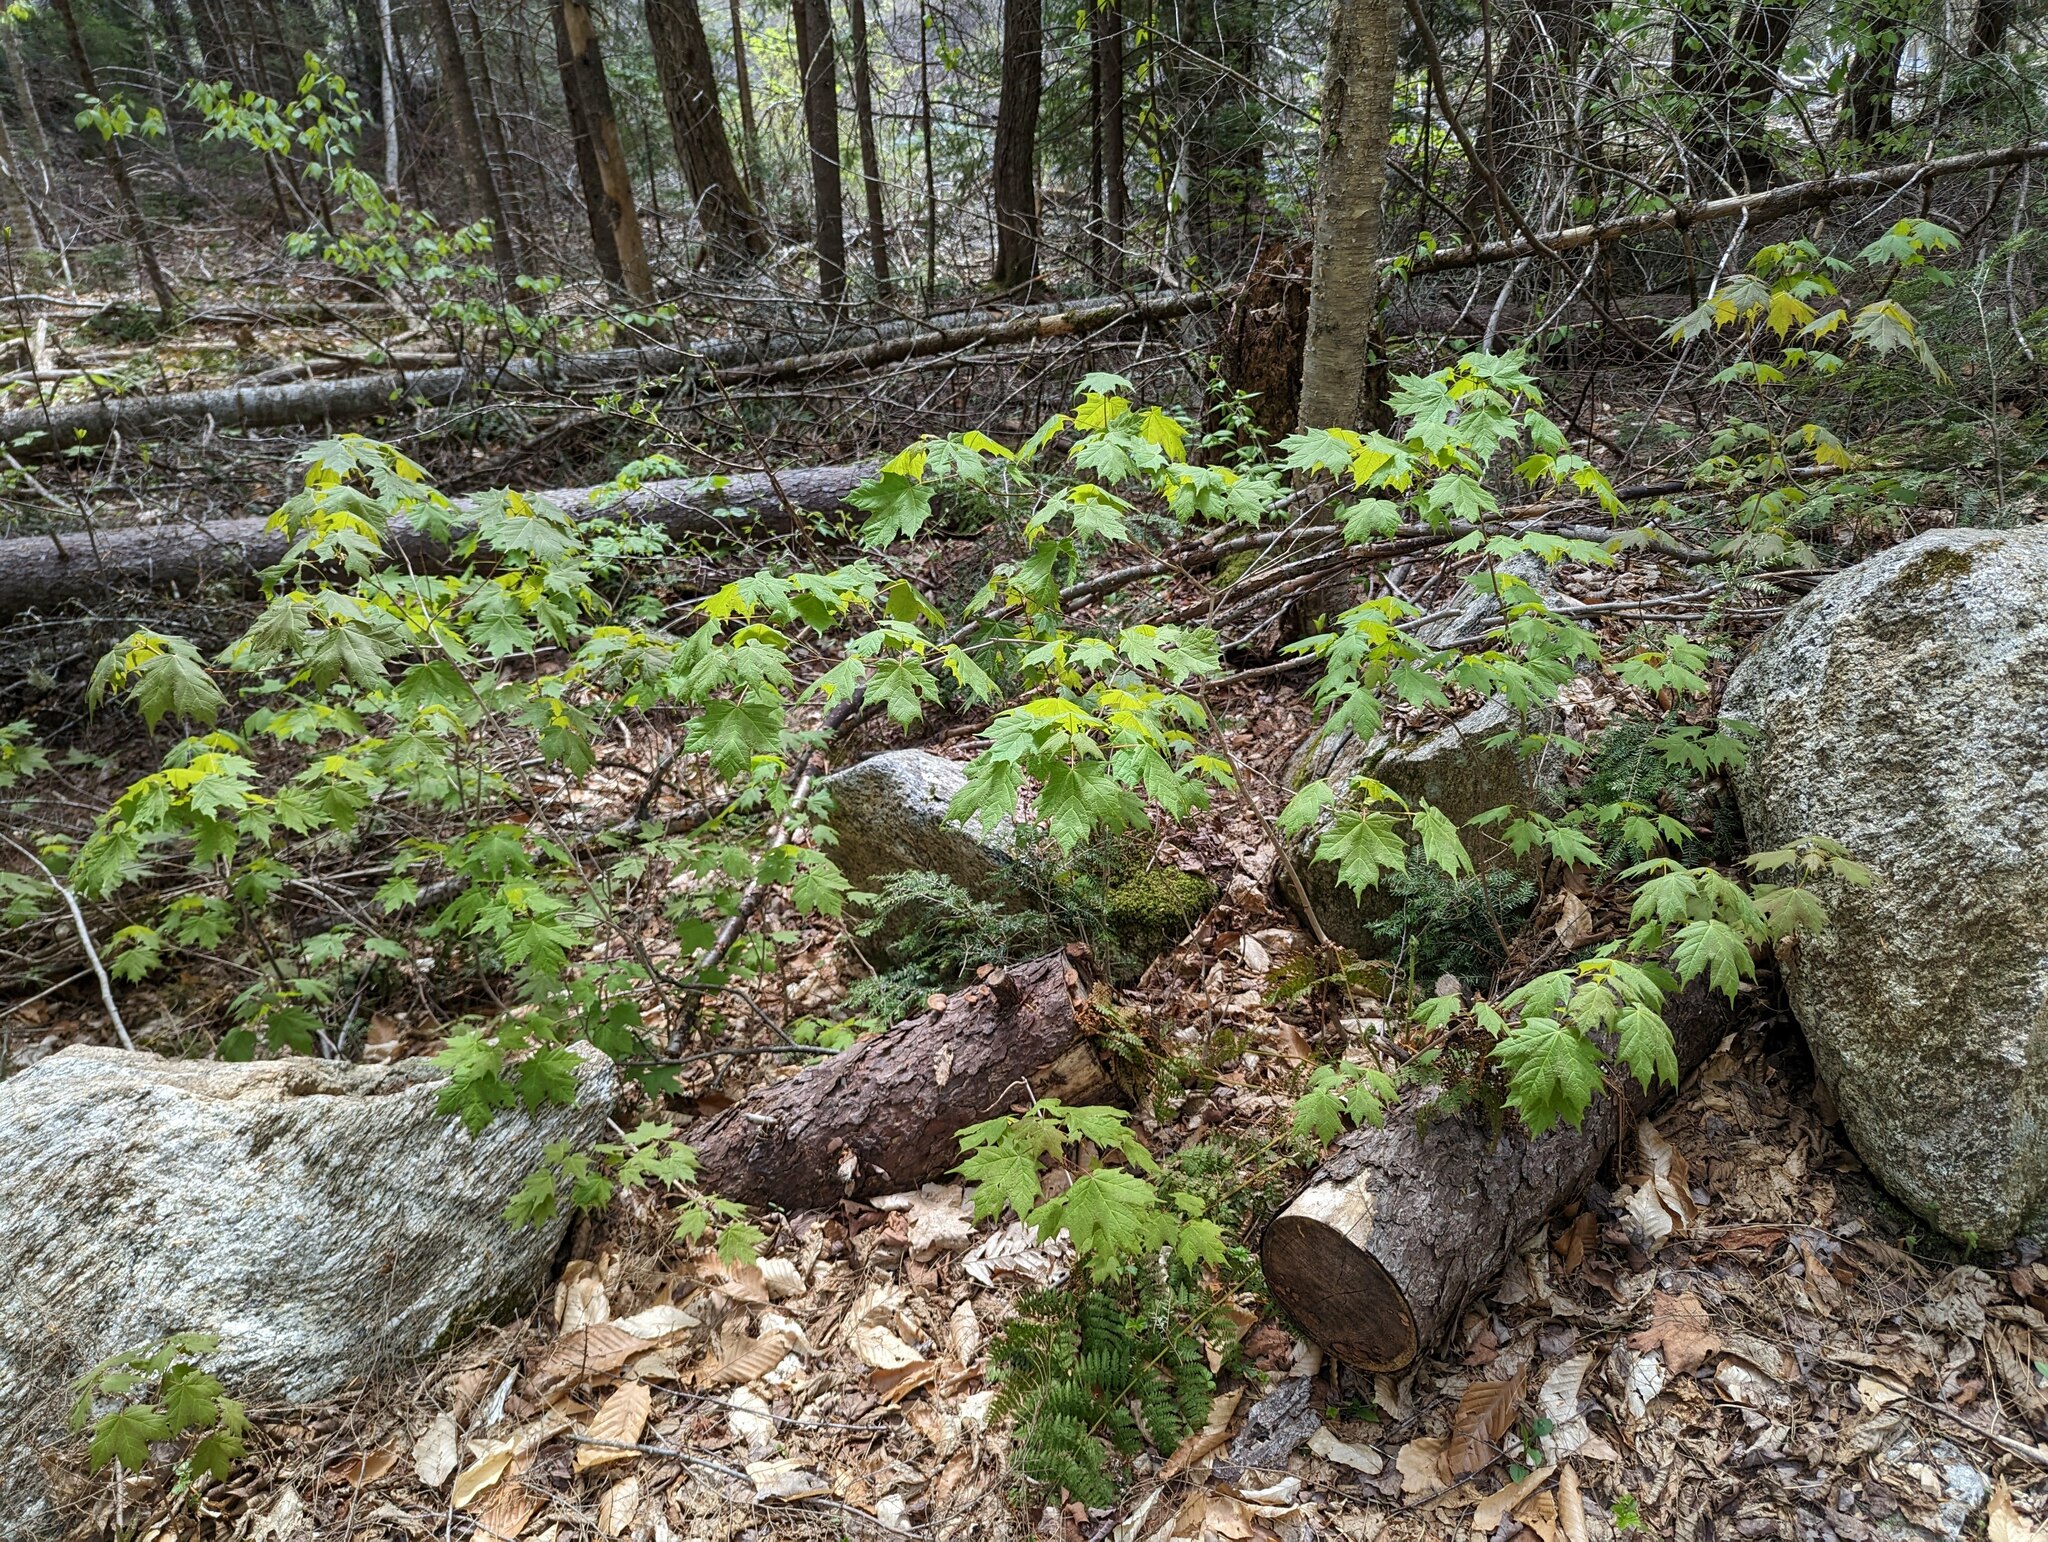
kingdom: Plantae
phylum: Tracheophyta
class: Magnoliopsida
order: Sapindales
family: Sapindaceae
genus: Acer
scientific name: Acer saccharum
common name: Sugar maple
